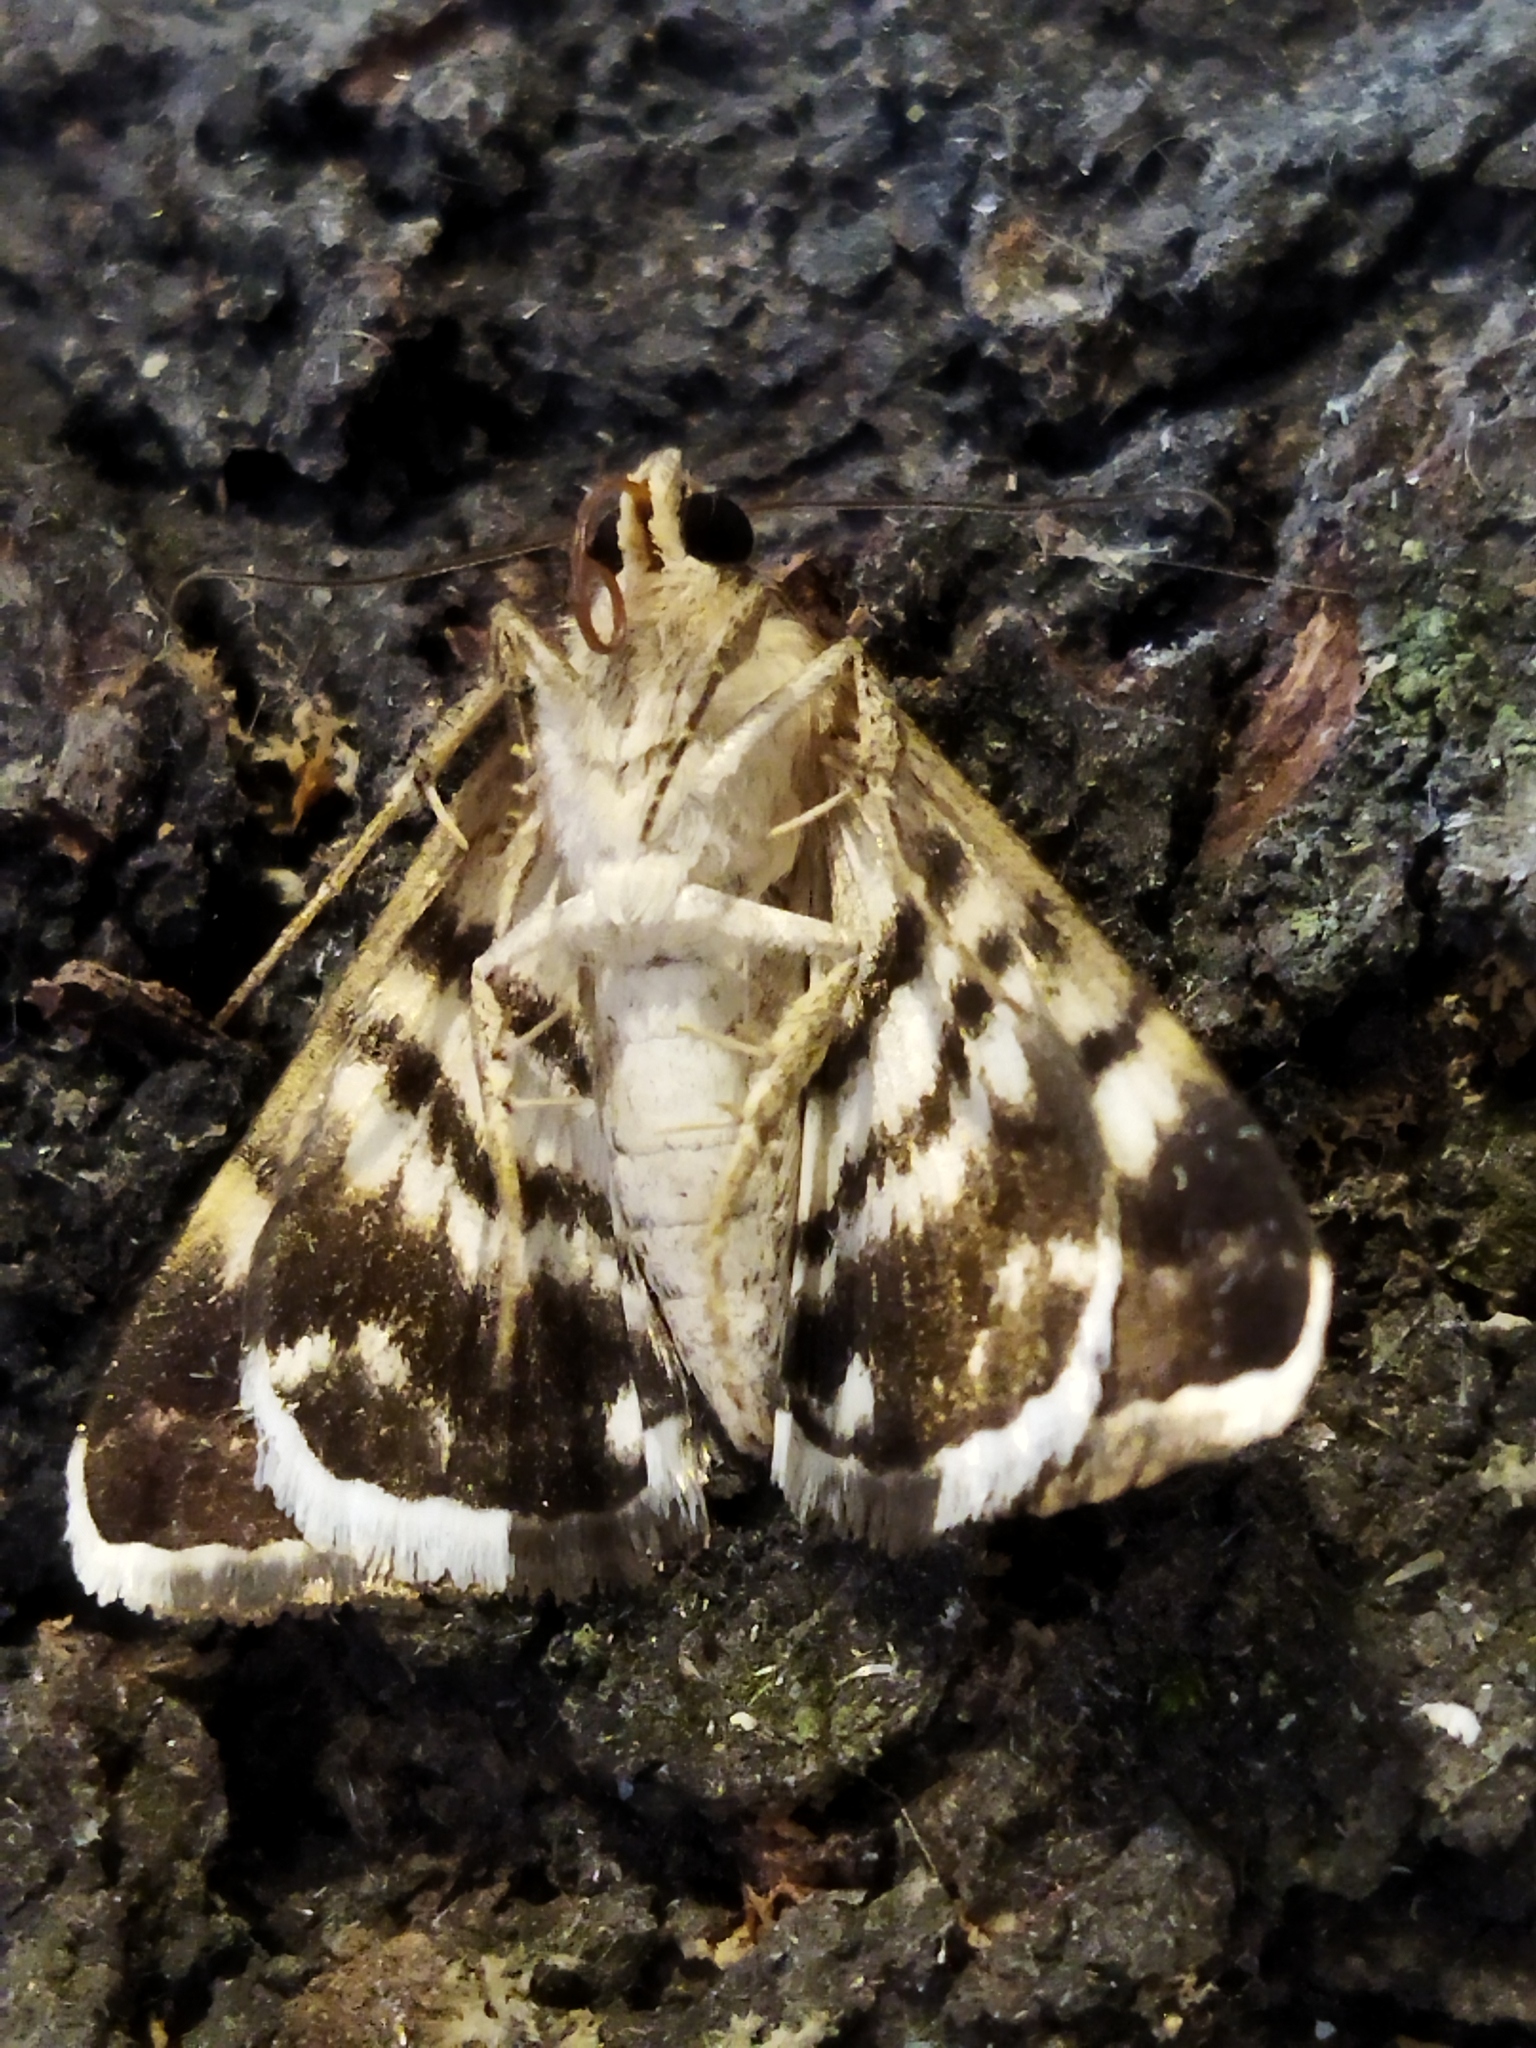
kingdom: Animalia
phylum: Arthropoda
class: Insecta
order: Lepidoptera
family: Erebidae
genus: Grammodes
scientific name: Grammodes stolida
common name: Geometrician
